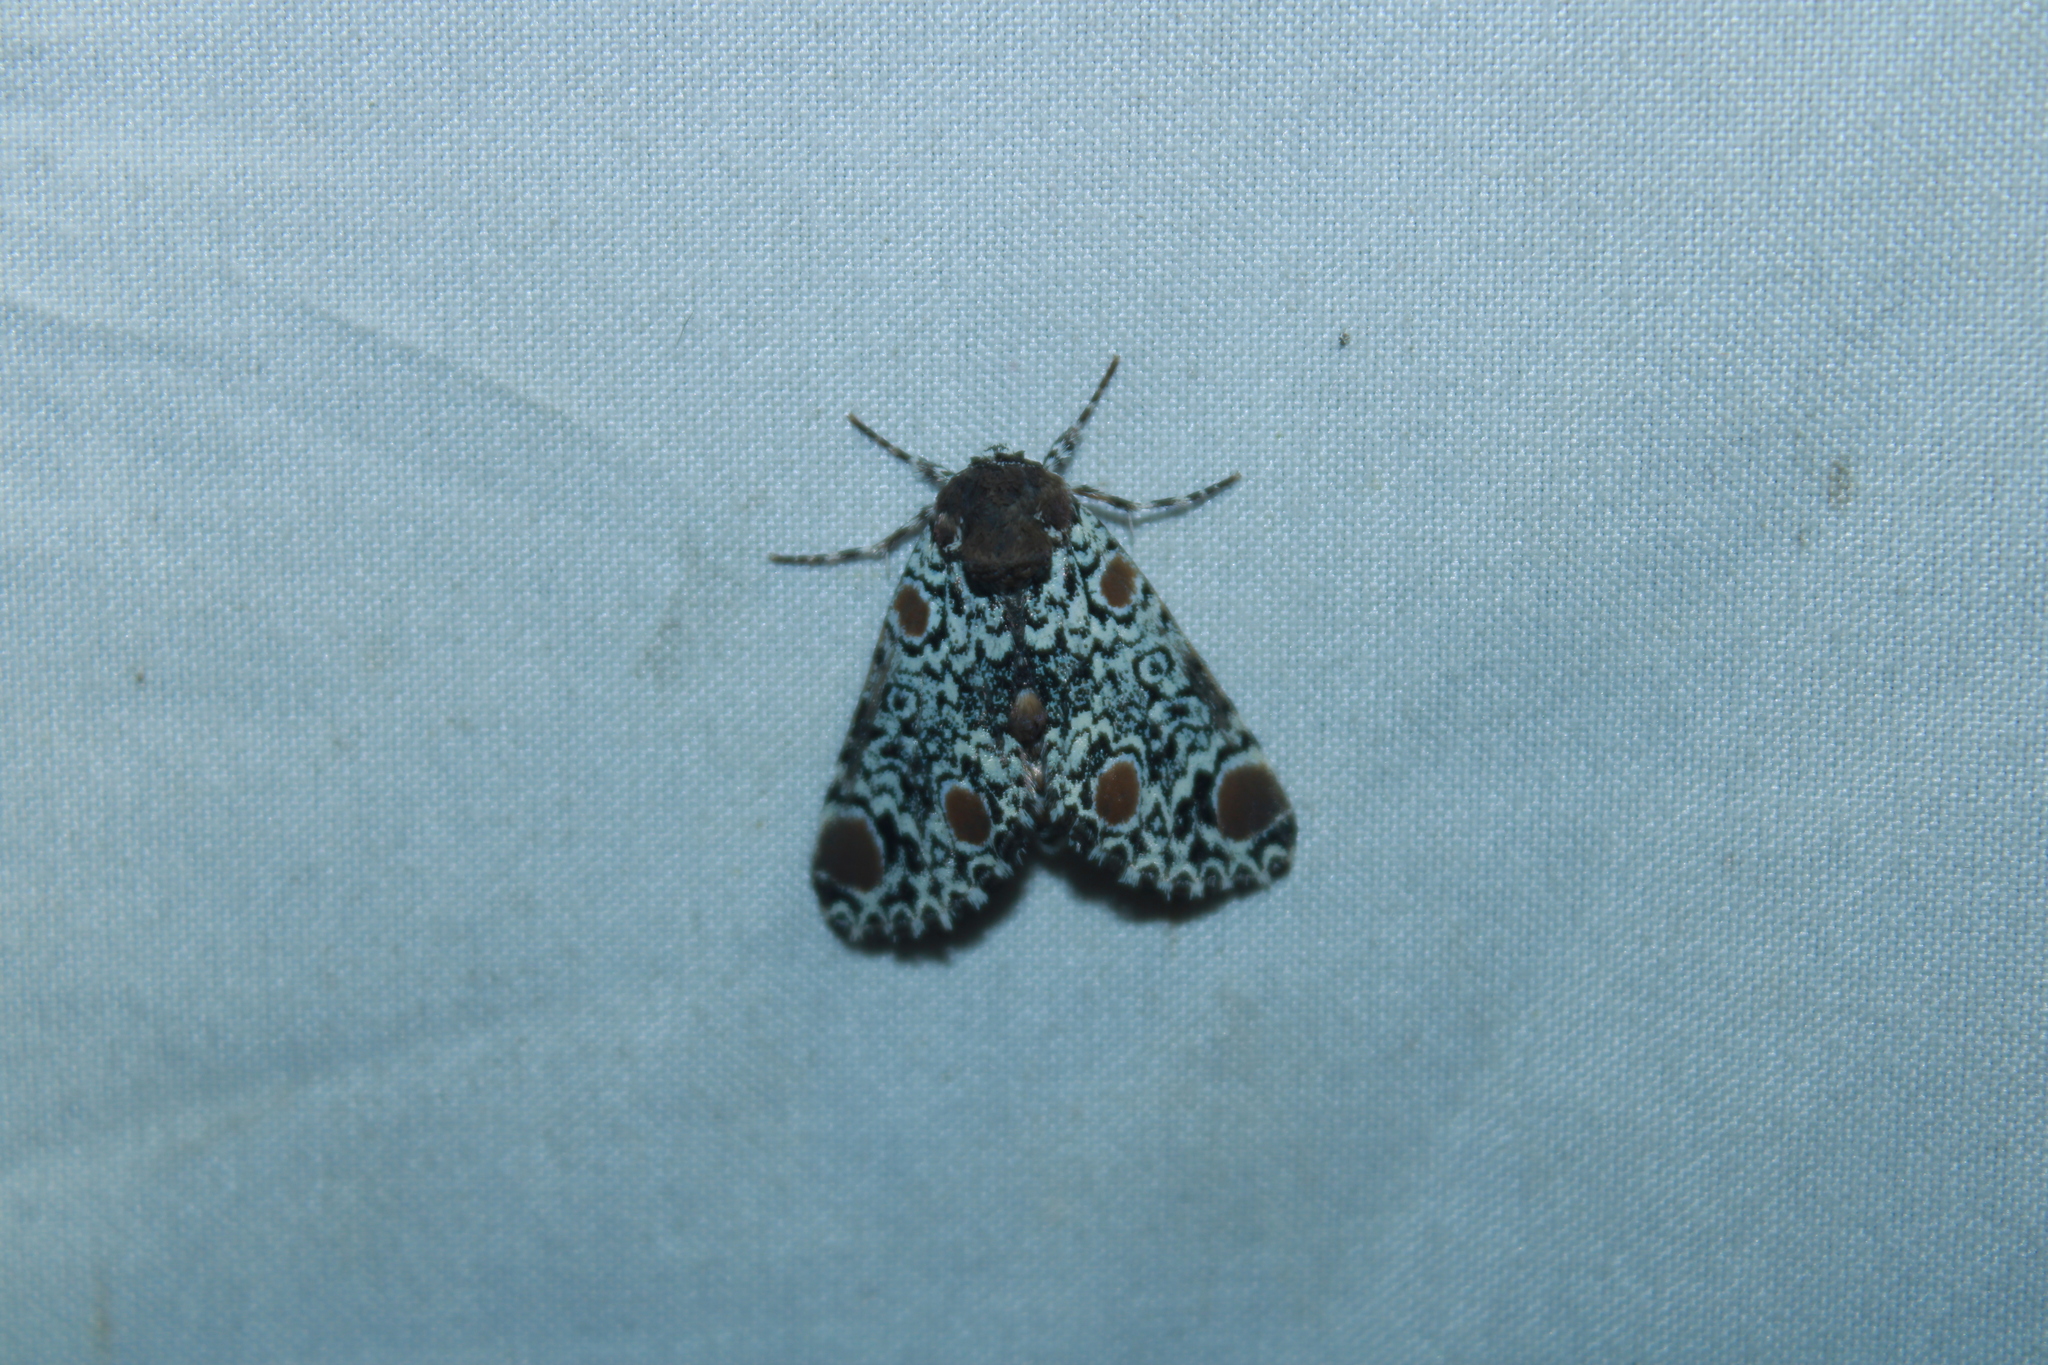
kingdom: Animalia
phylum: Arthropoda
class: Insecta
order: Lepidoptera
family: Noctuidae
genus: Harrisimemna
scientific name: Harrisimemna trisignata
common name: Harris threespot
